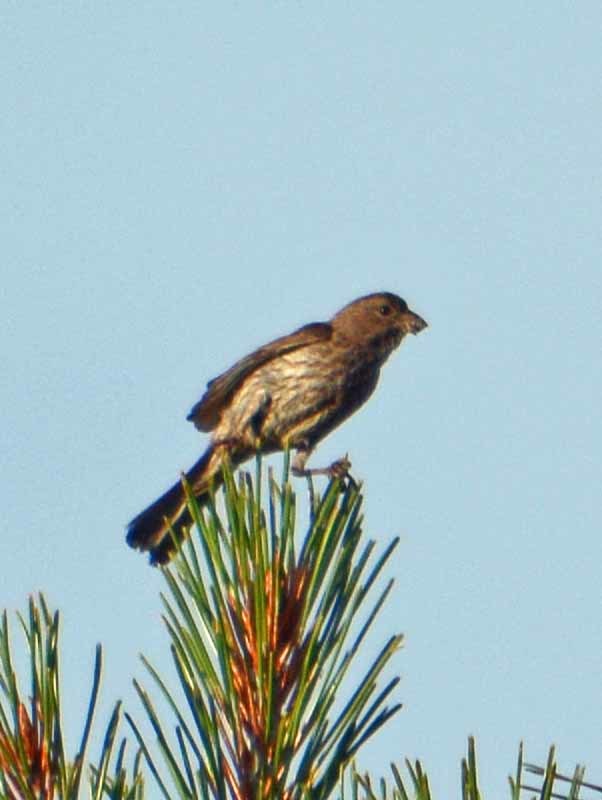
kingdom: Animalia
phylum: Chordata
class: Aves
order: Passeriformes
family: Fringillidae
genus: Haemorhous
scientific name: Haemorhous mexicanus
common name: House finch
